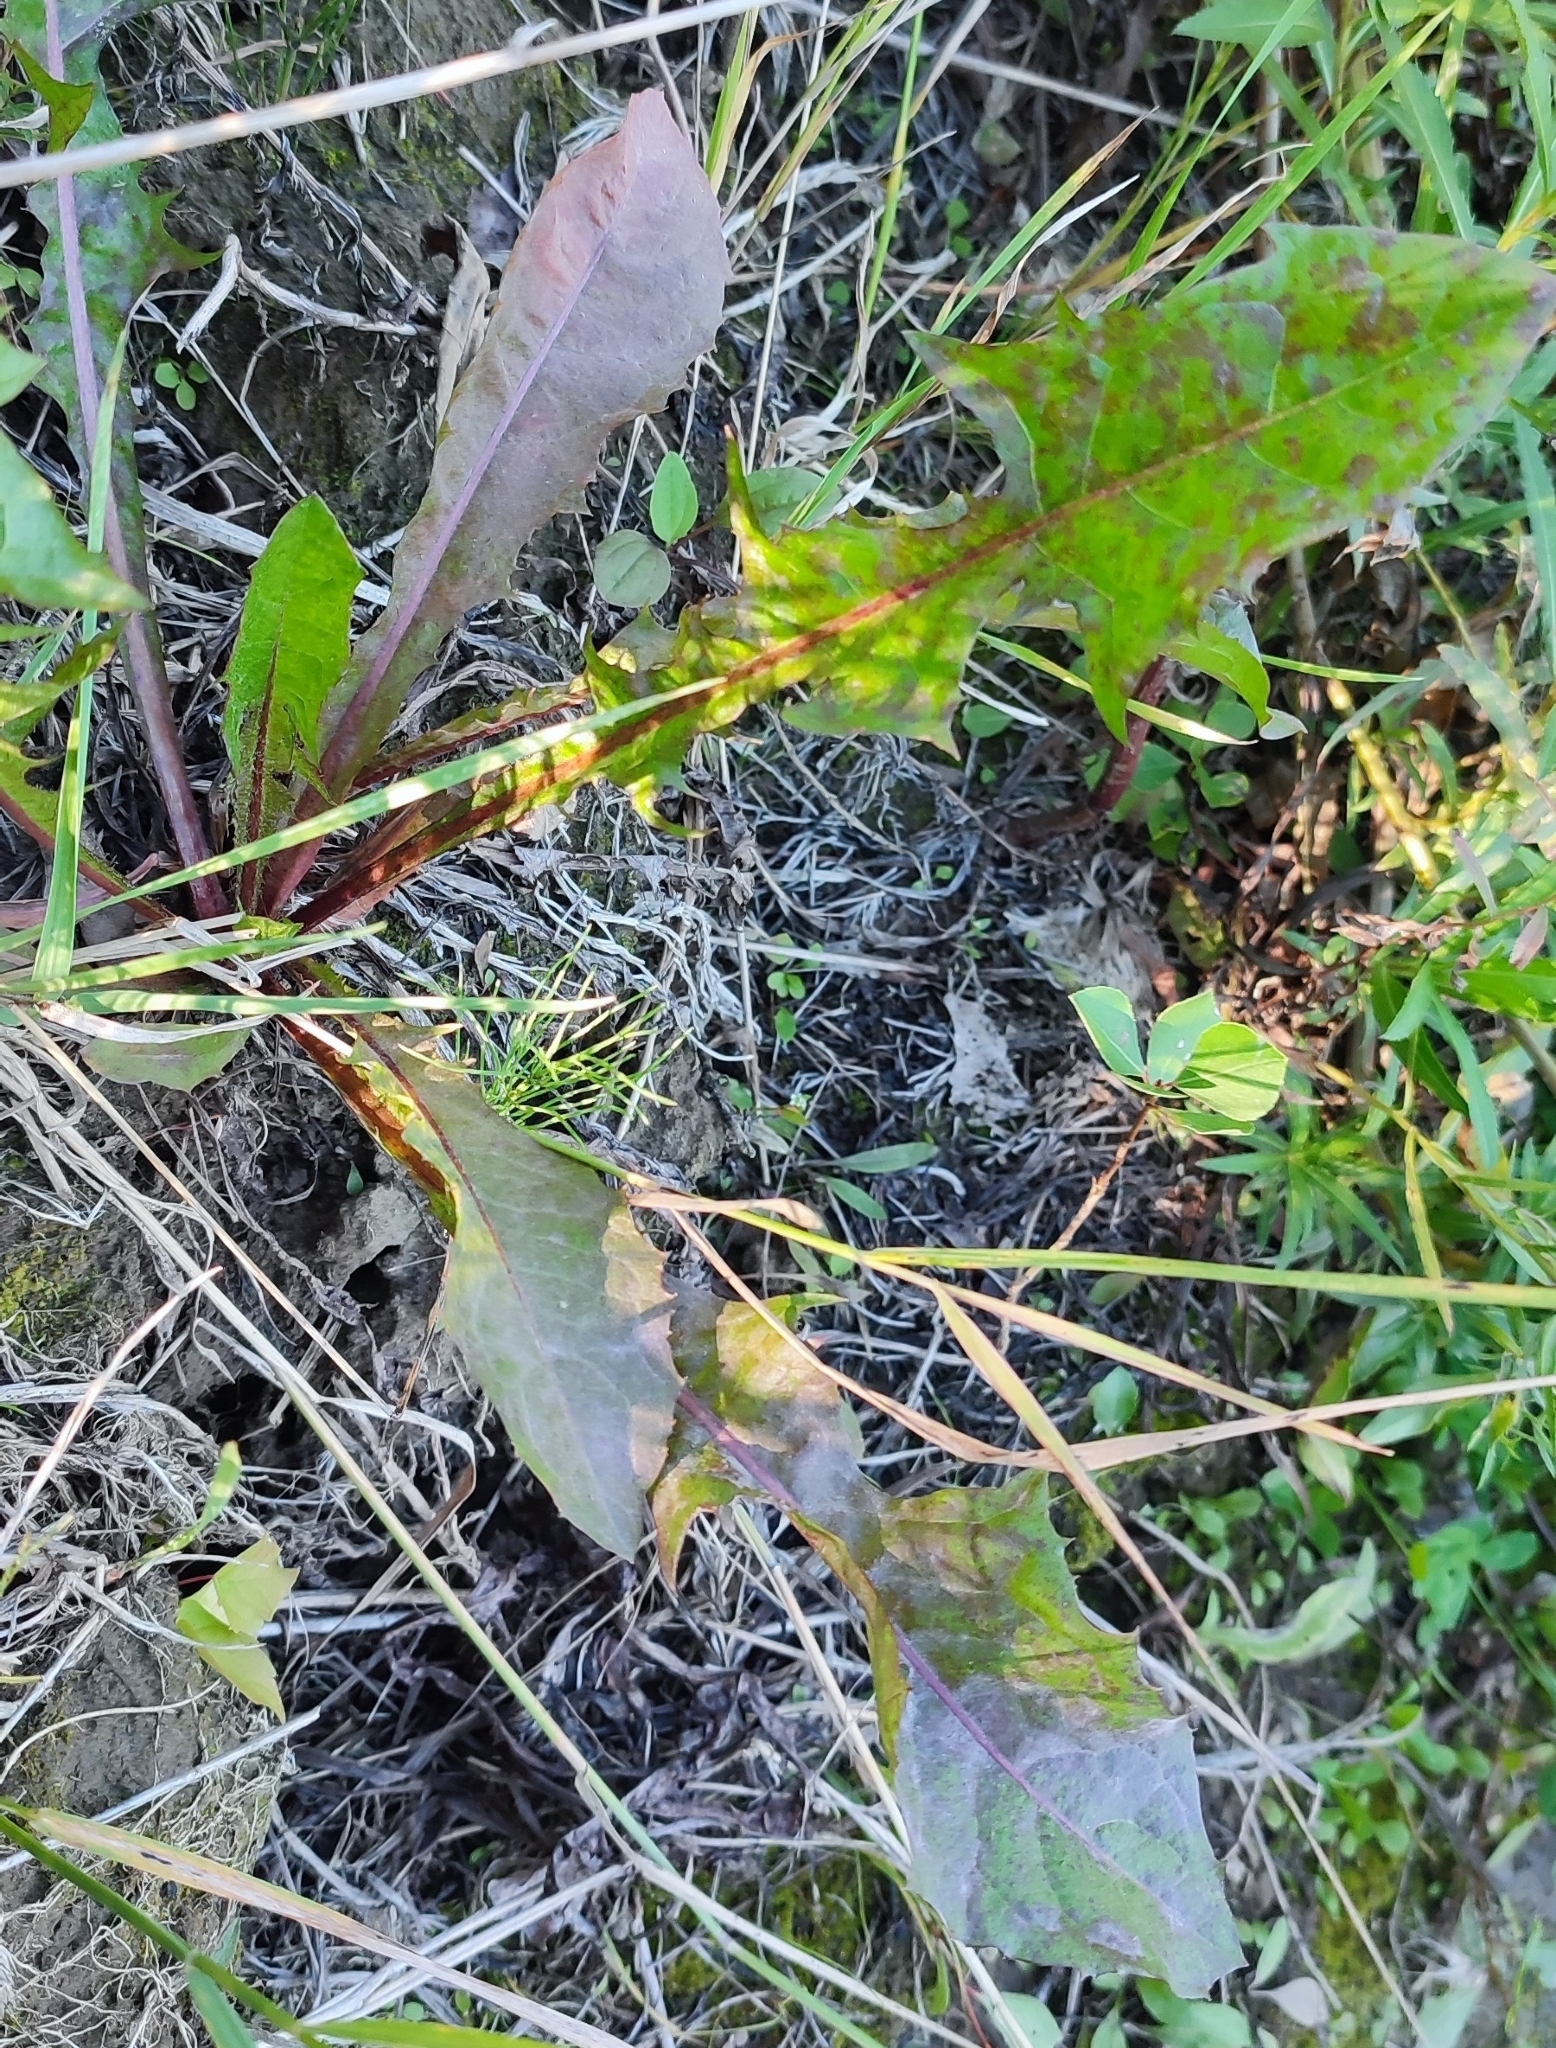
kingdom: Plantae
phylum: Tracheophyta
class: Magnoliopsida
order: Asterales
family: Asteraceae
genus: Taraxacum
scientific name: Taraxacum officinale
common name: Common dandelion
